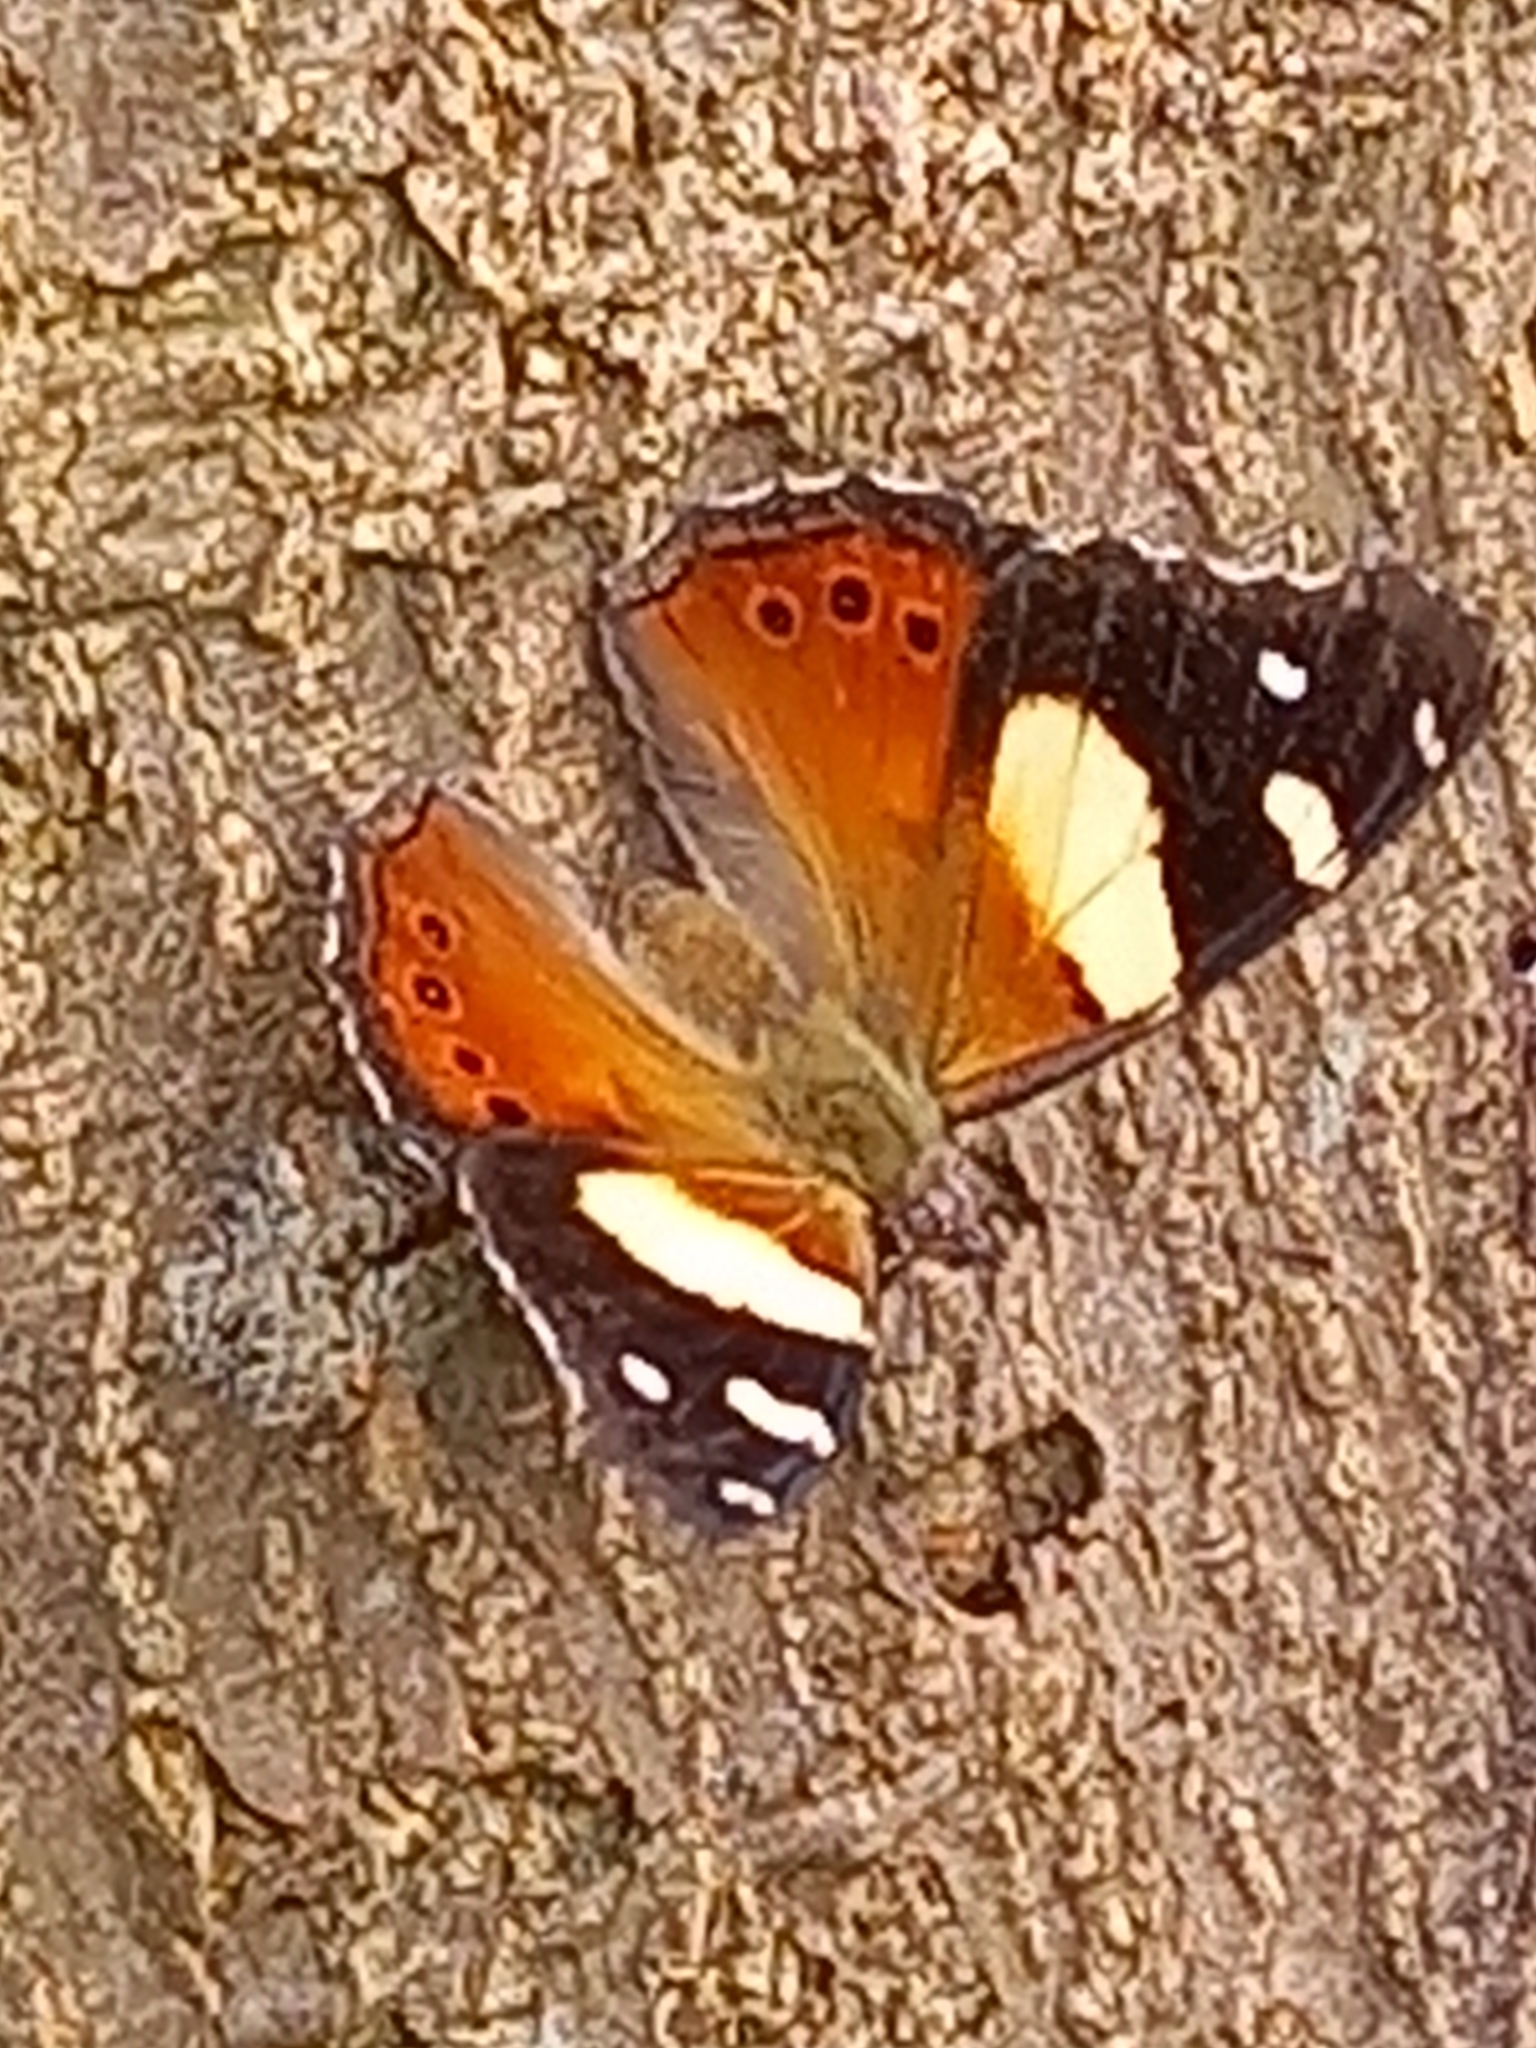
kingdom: Animalia
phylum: Arthropoda
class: Insecta
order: Lepidoptera
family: Nymphalidae
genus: Vanessa
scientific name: Vanessa itea
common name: Yellow admiral
